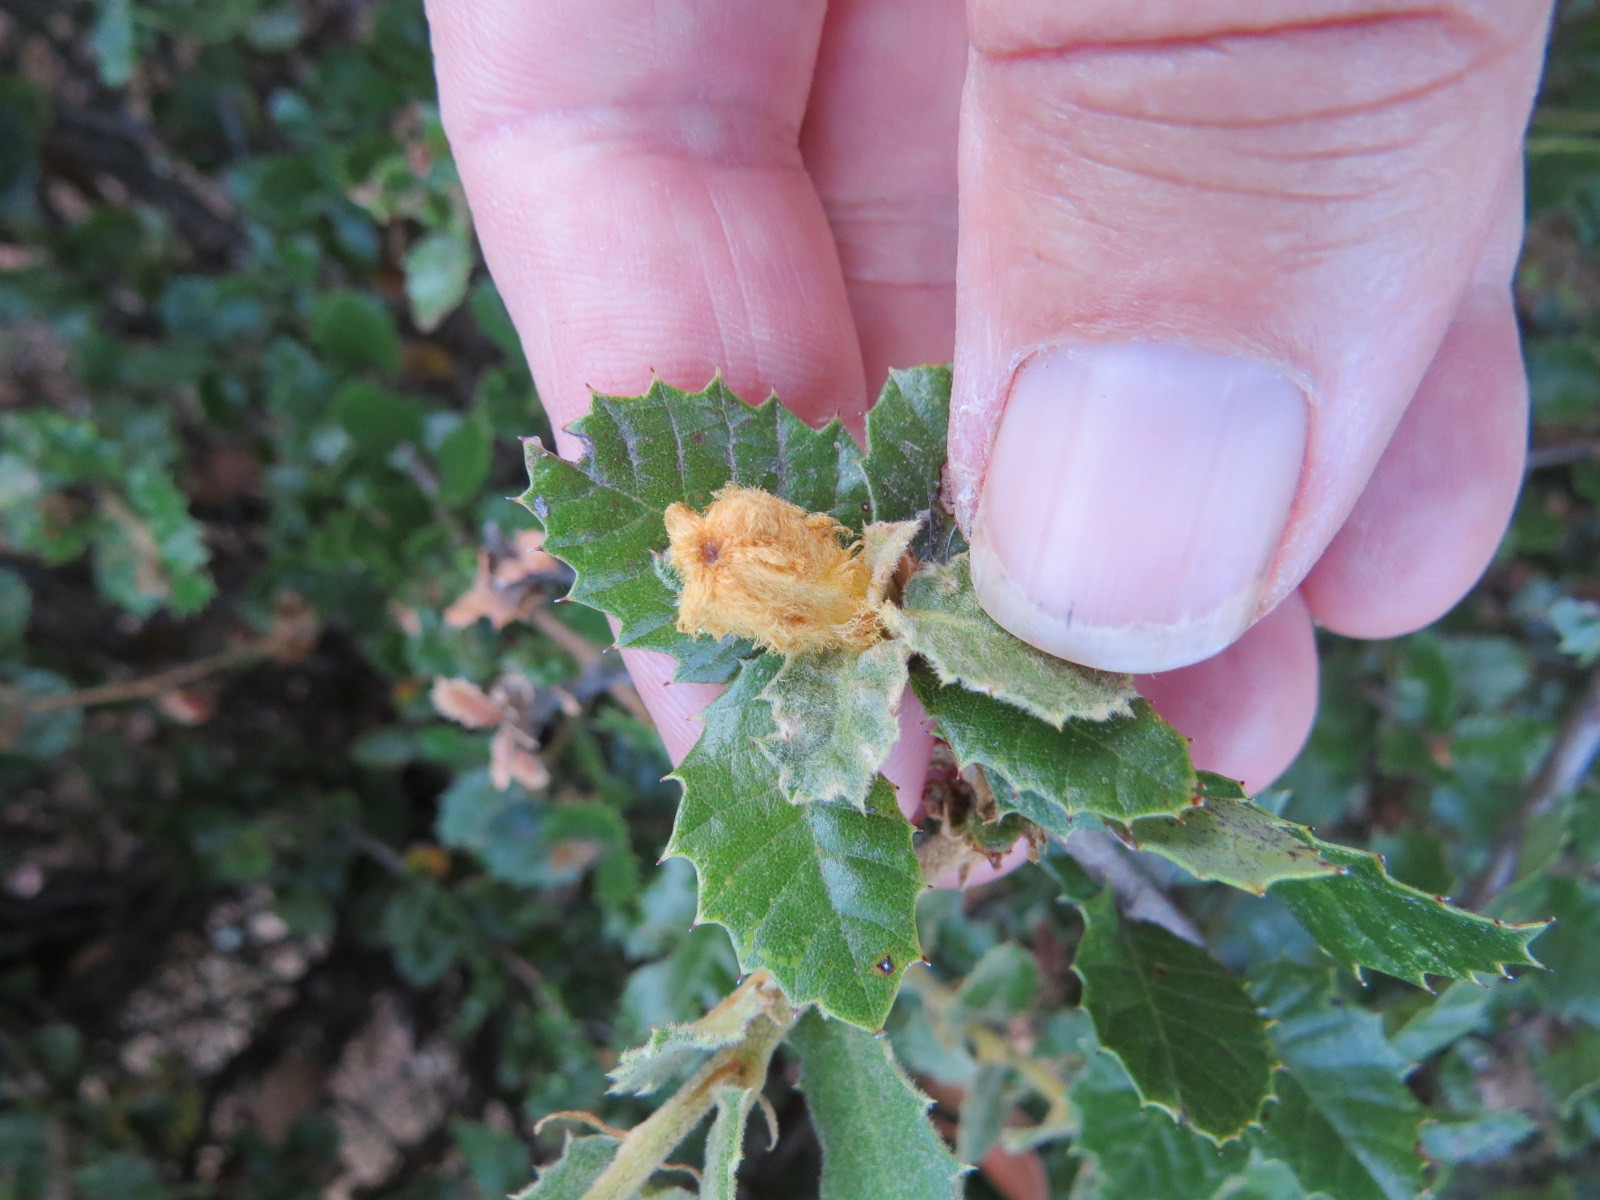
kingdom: Animalia
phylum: Arthropoda
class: Insecta
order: Hymenoptera
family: Cynipidae
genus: Heteroecus
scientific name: Heteroecus
